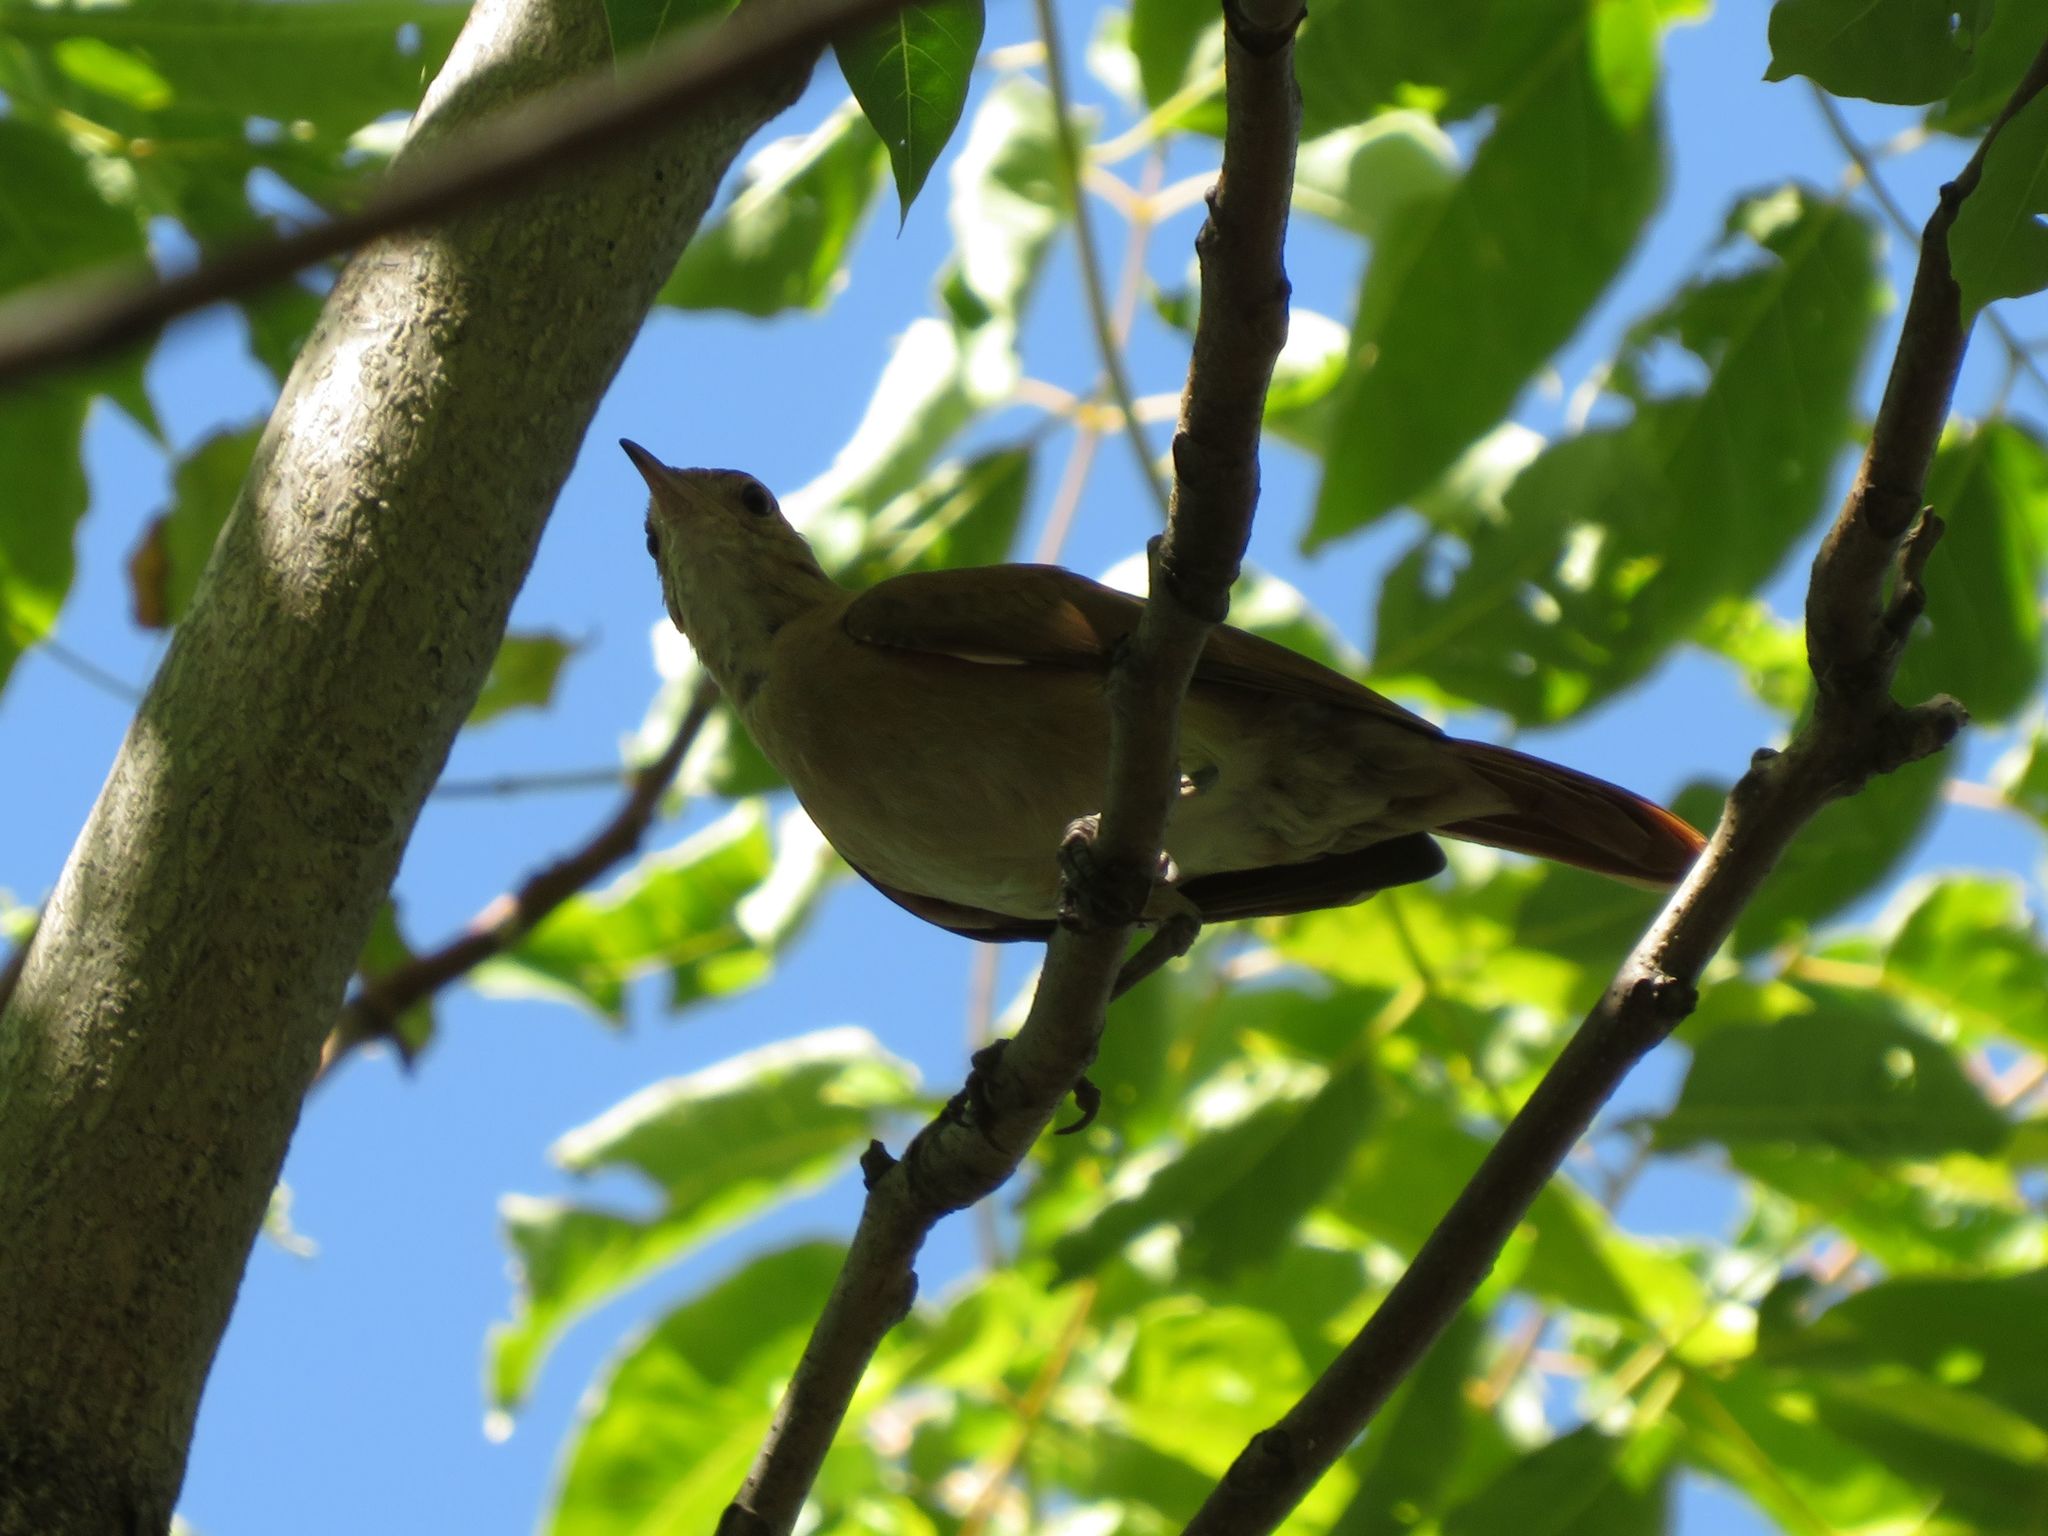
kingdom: Animalia
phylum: Chordata
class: Aves
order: Passeriformes
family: Furnariidae
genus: Furnarius
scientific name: Furnarius rufus
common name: Rufous hornero
